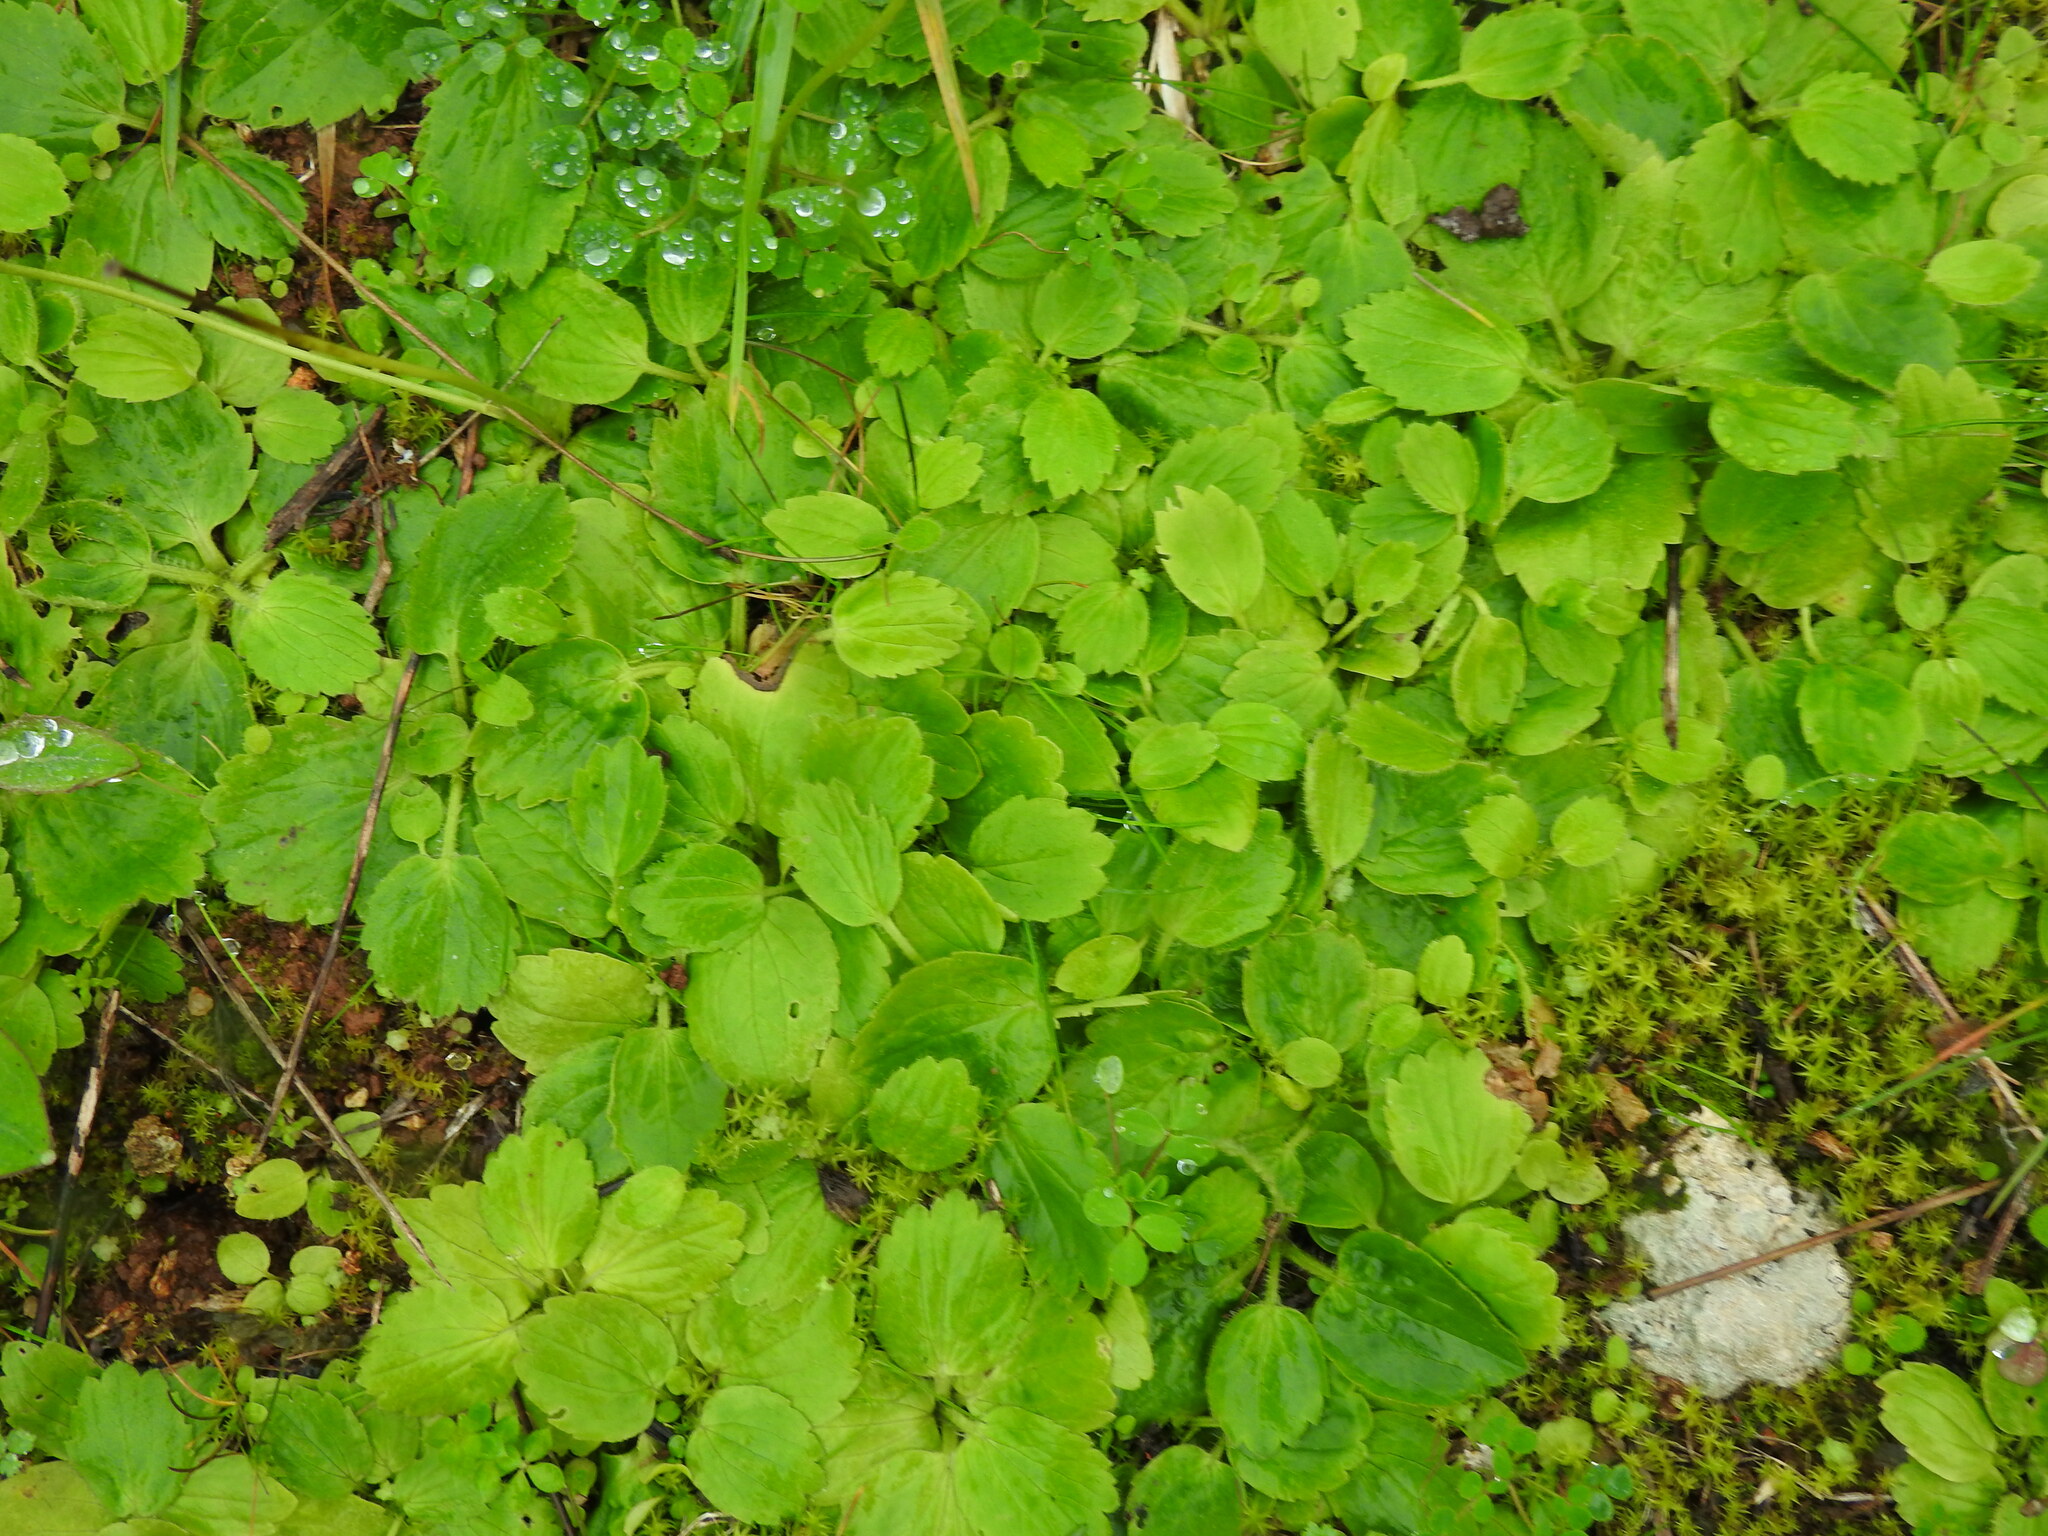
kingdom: Plantae
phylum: Tracheophyta
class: Magnoliopsida
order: Ranunculales
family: Ranunculaceae
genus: Ranunculus
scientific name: Ranunculus bullatus
